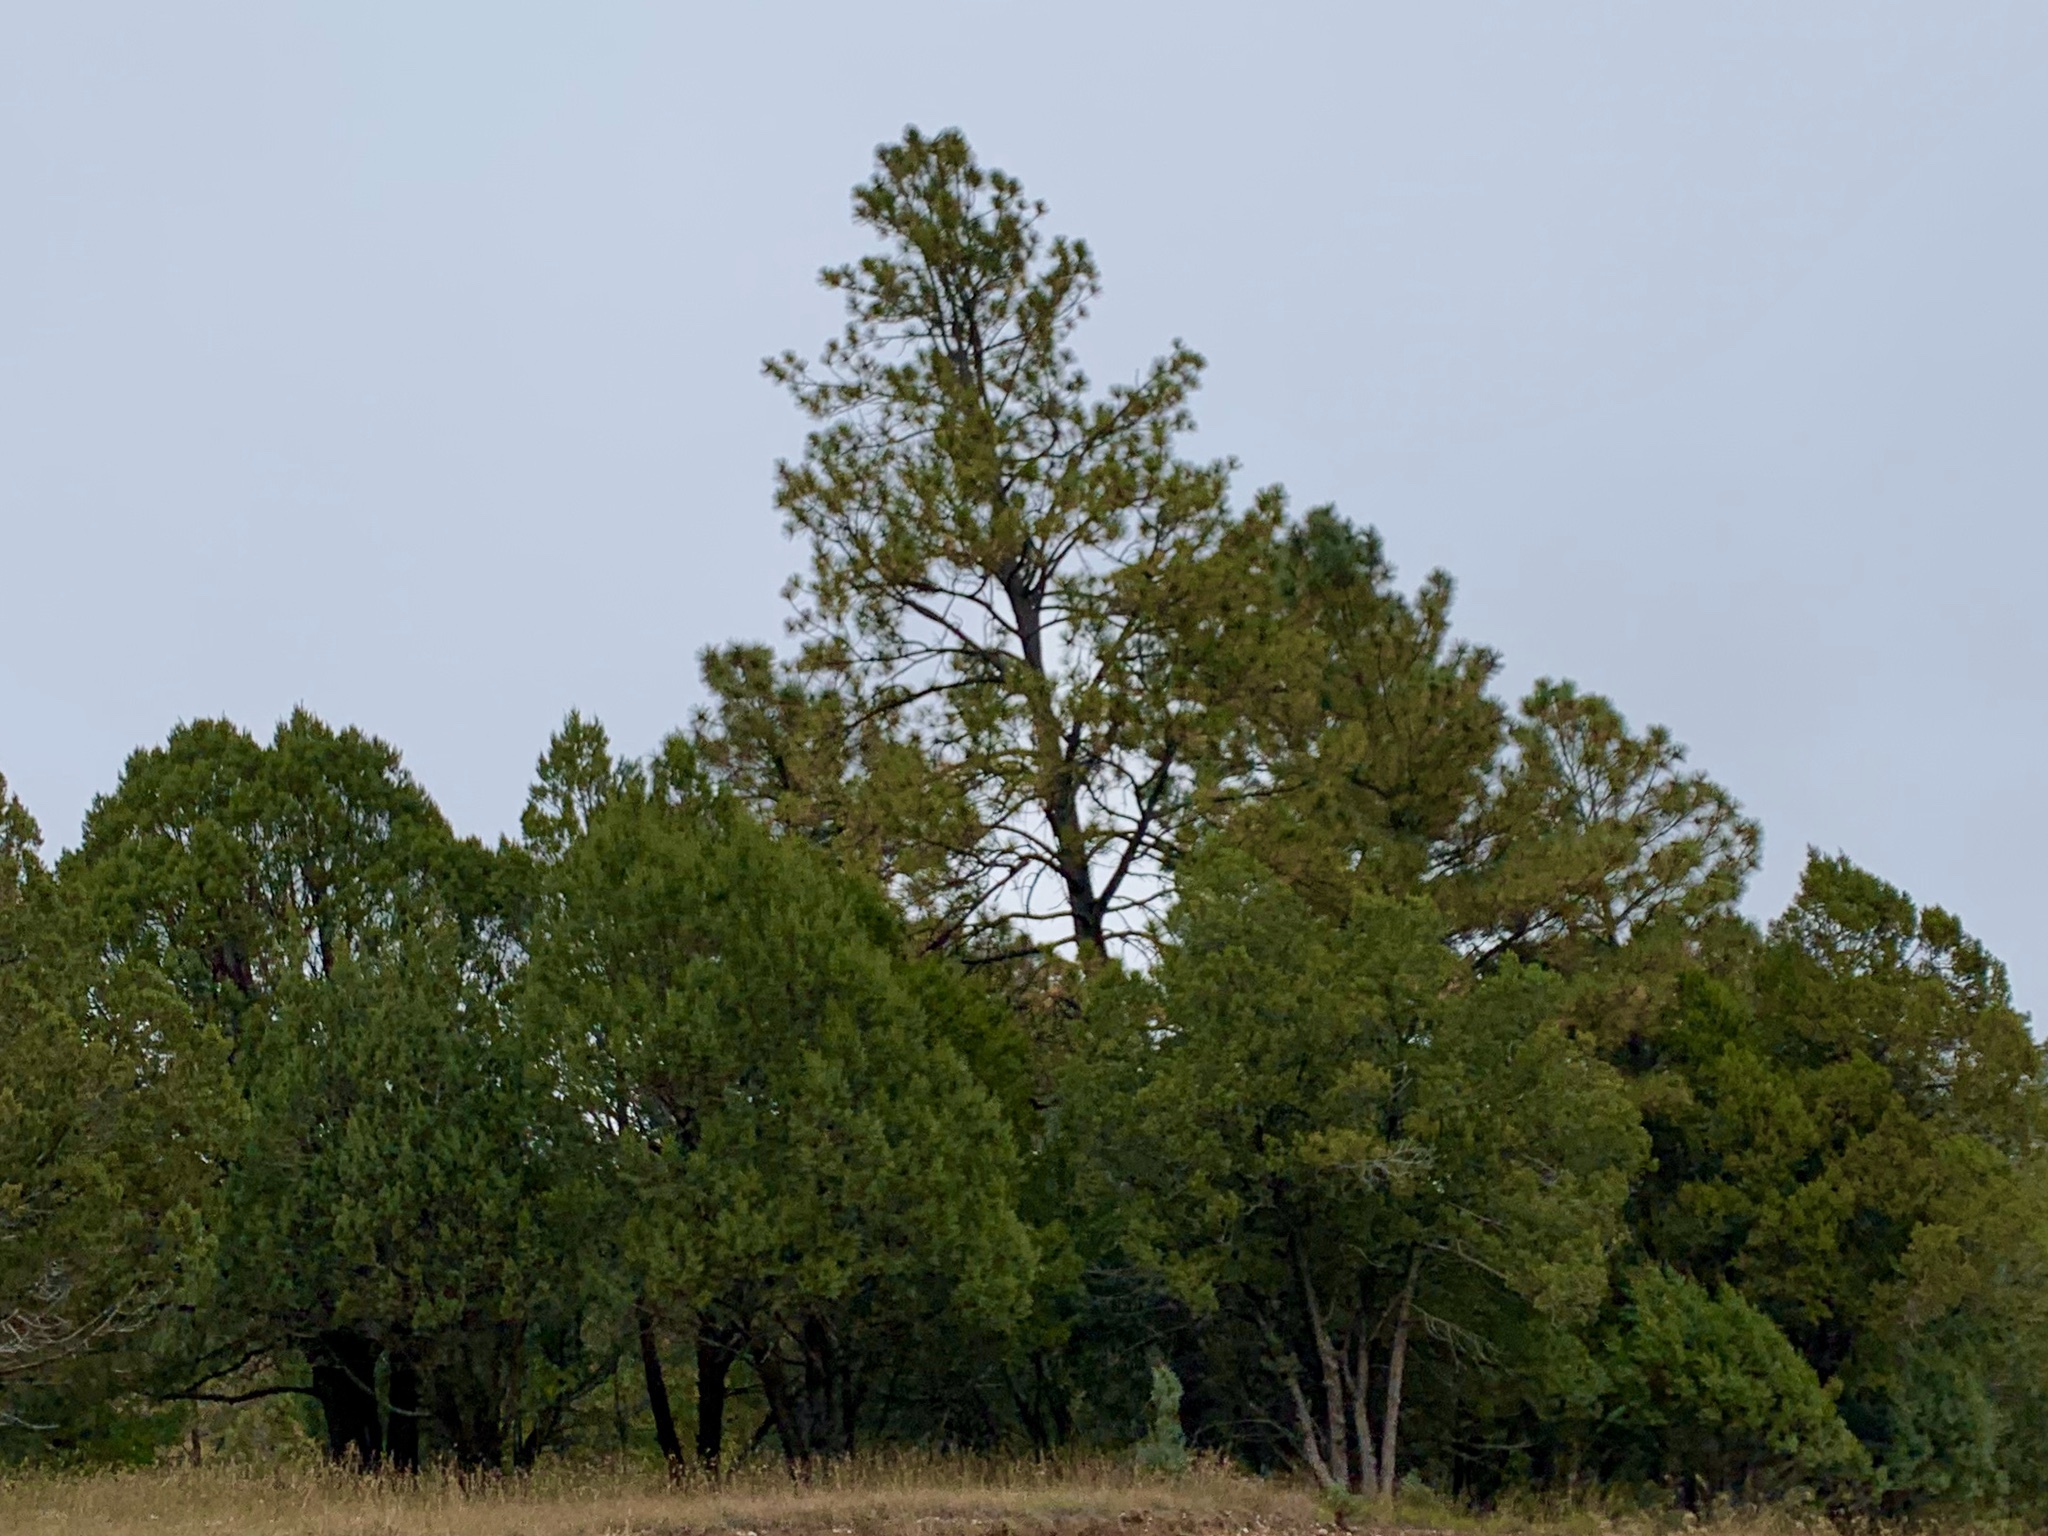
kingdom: Plantae
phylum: Tracheophyta
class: Pinopsida
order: Pinales
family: Pinaceae
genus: Pinus
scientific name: Pinus ponderosa
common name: Western yellow-pine
